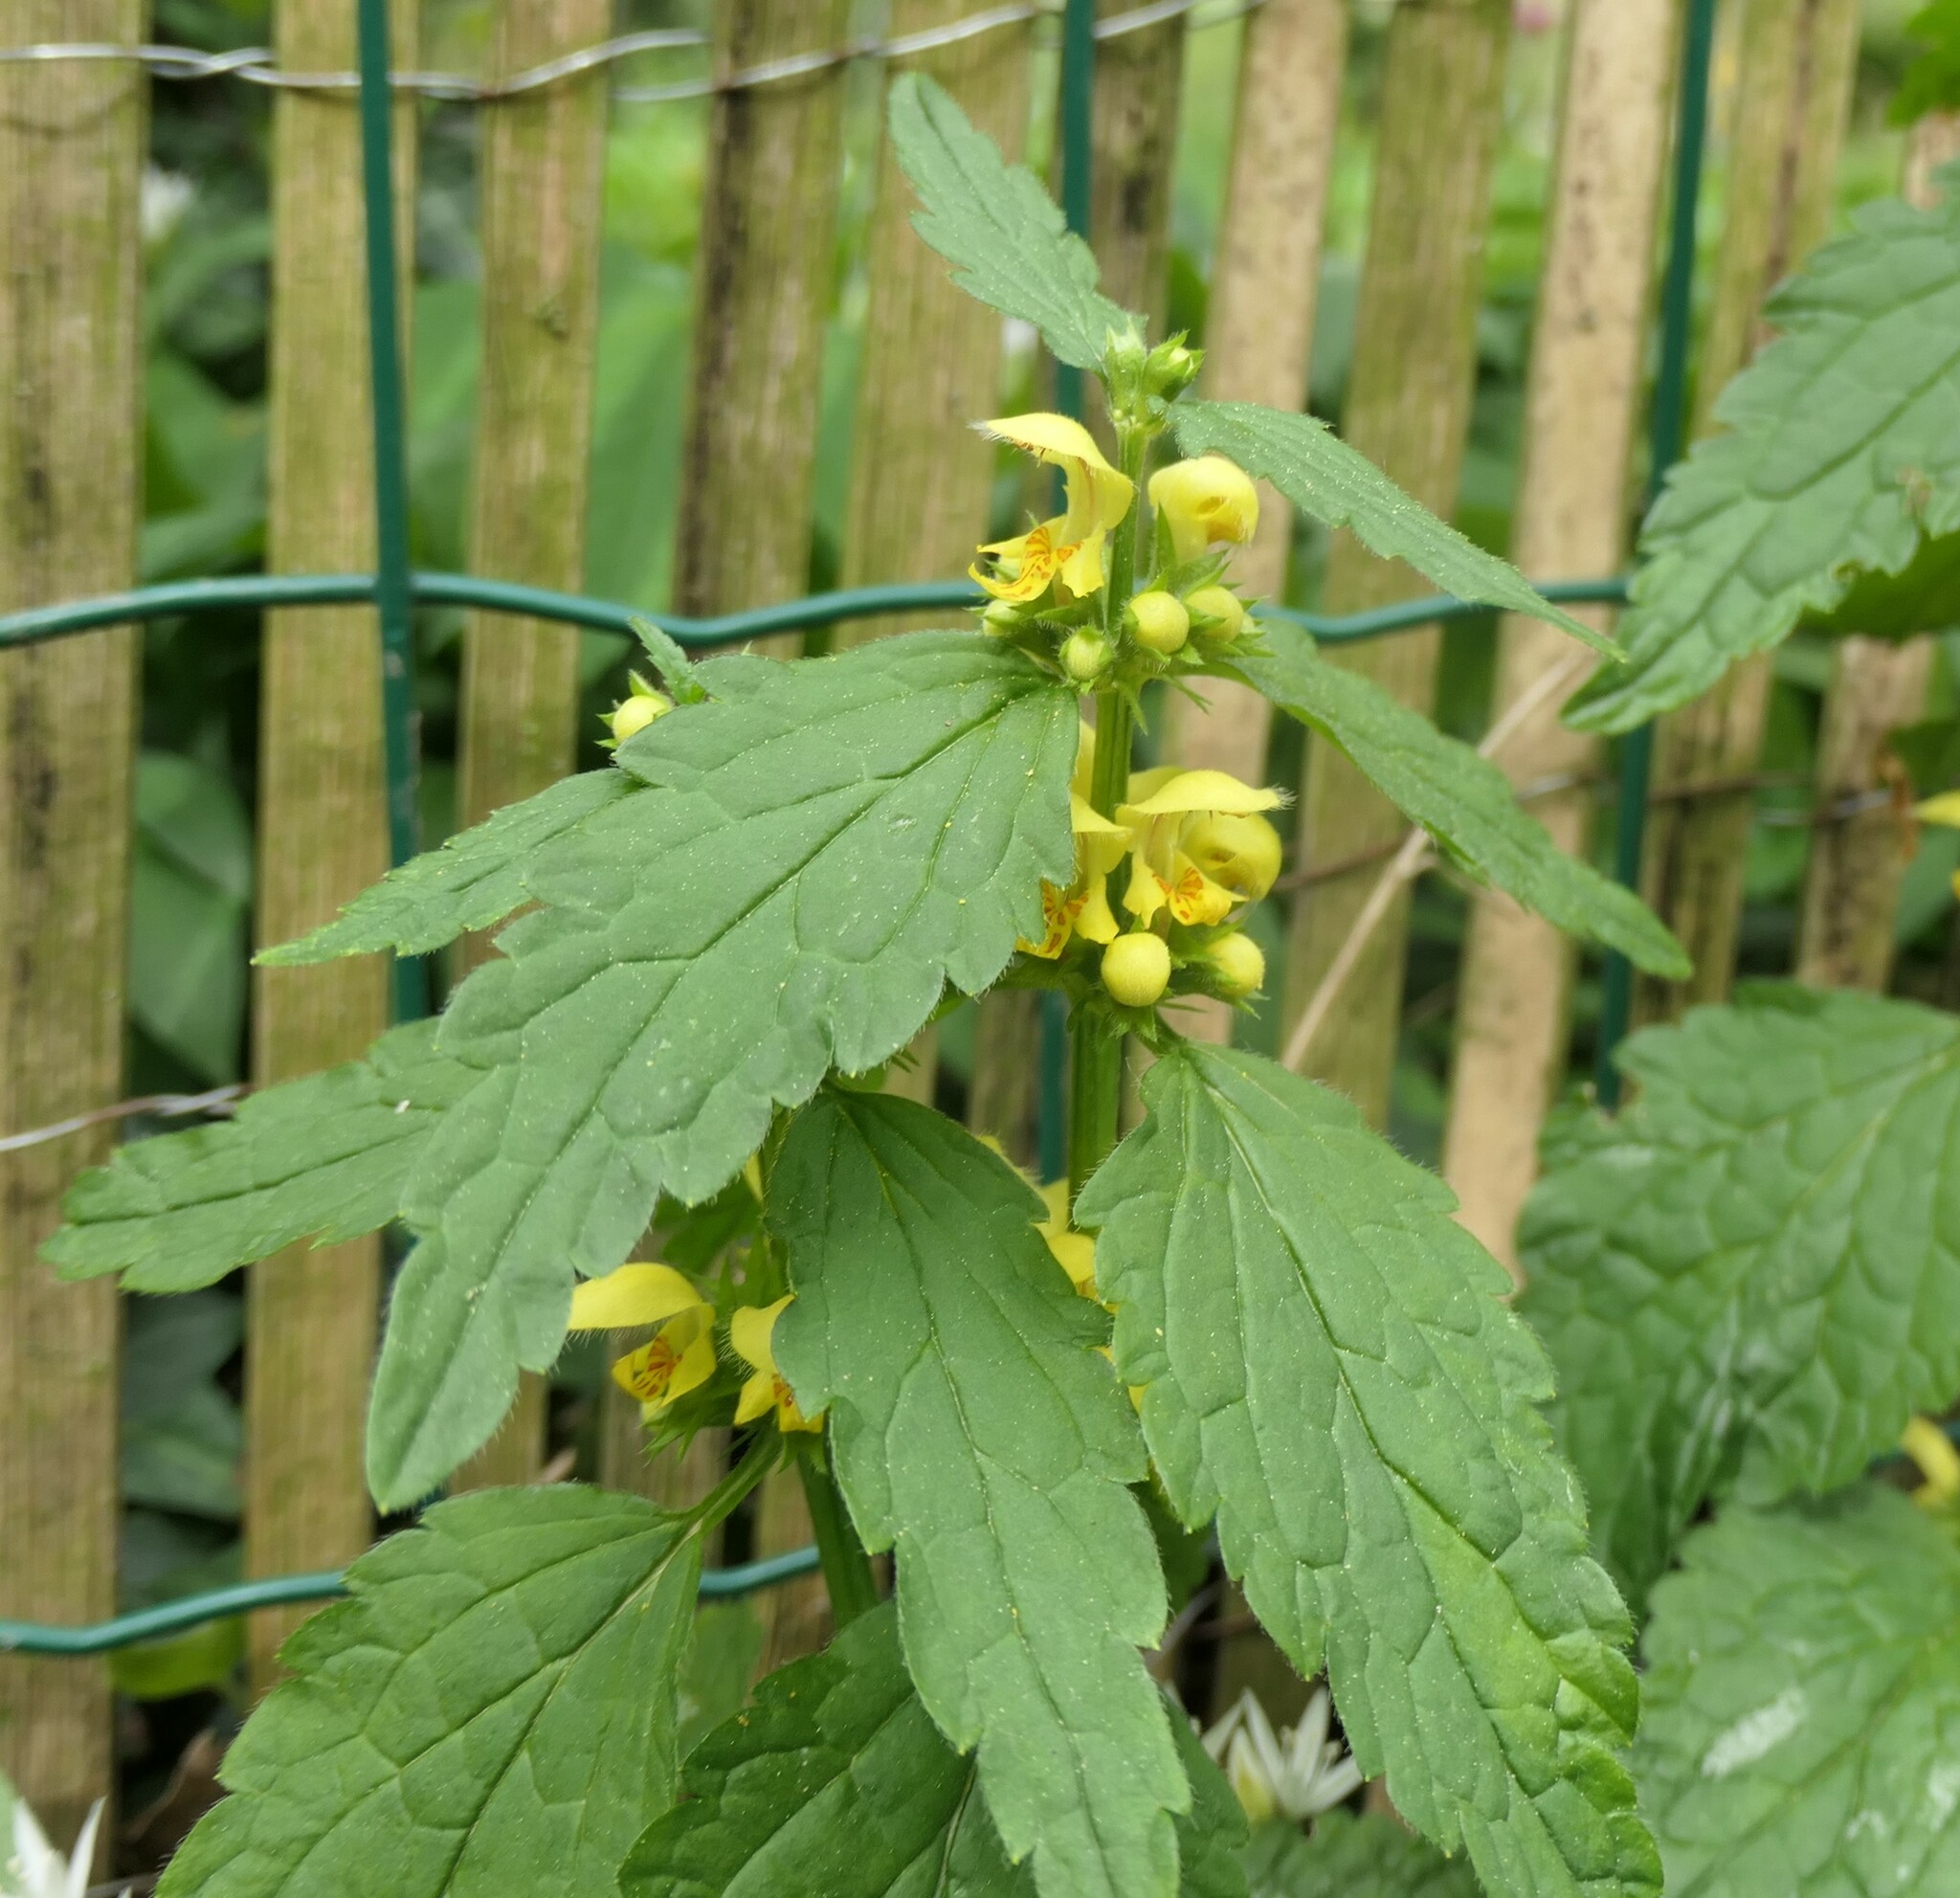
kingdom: Plantae
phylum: Tracheophyta
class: Magnoliopsida
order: Lamiales
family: Lamiaceae
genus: Lamium
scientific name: Lamium galeobdolon
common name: Yellow archangel
